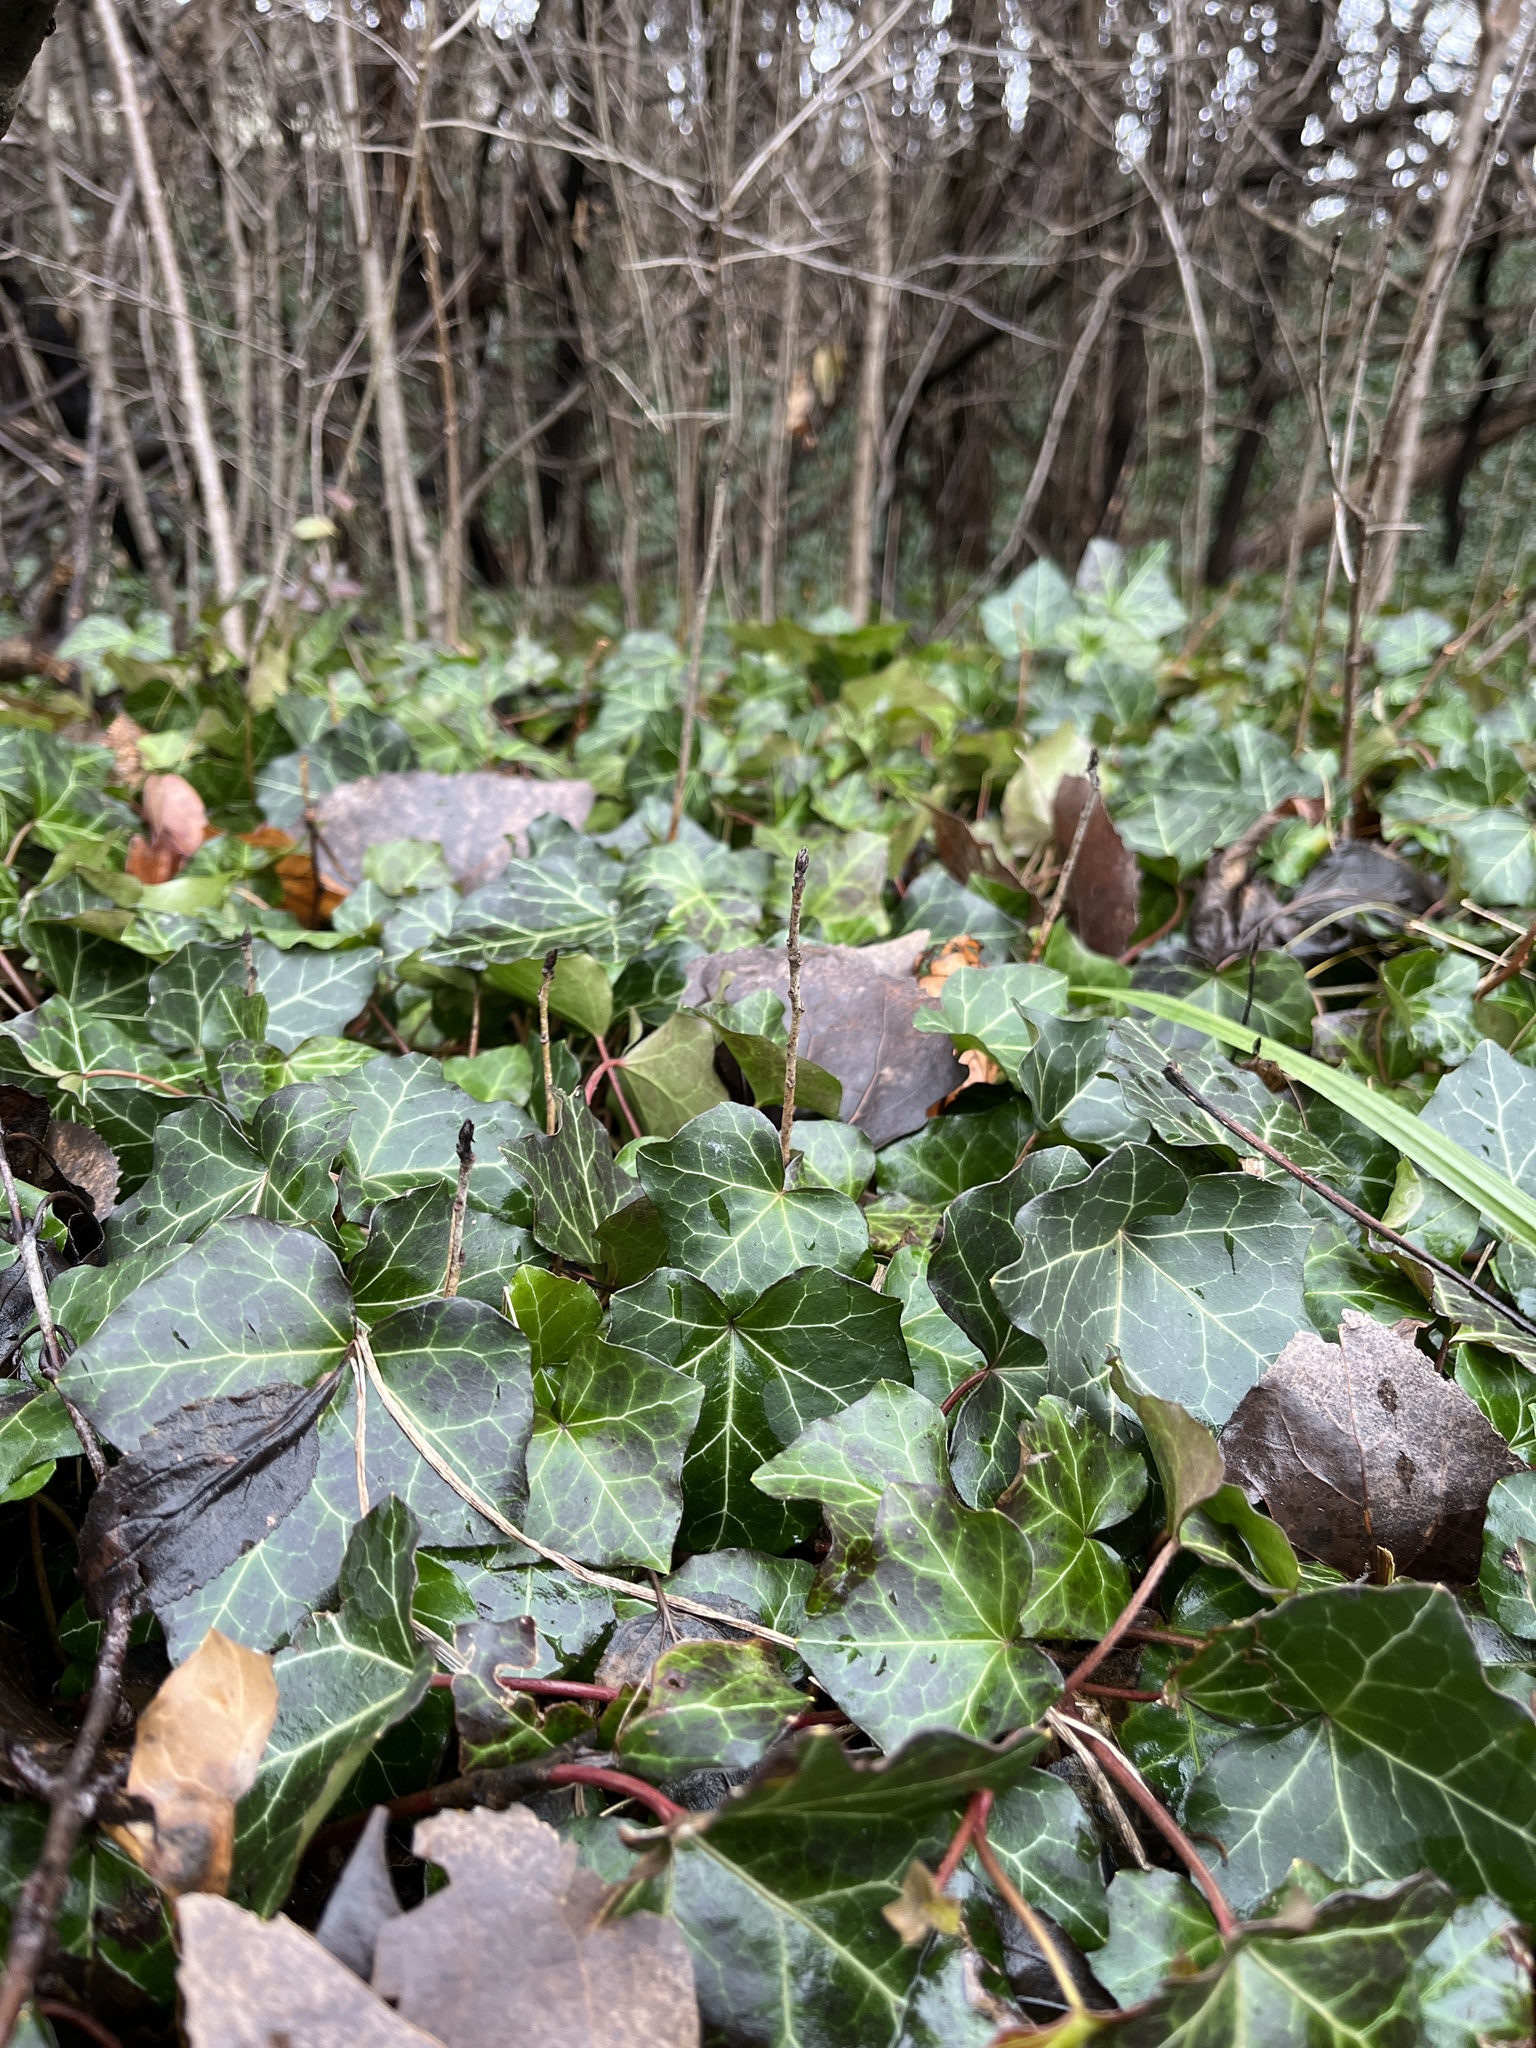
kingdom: Plantae
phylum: Tracheophyta
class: Magnoliopsida
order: Apiales
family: Araliaceae
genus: Hedera
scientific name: Hedera helix
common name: Ivy
